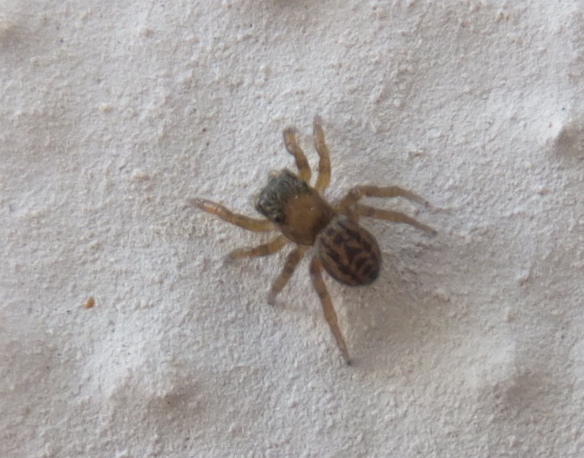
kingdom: Animalia
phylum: Arthropoda
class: Arachnida
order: Araneae
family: Salticidae
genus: Euophrys
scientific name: Euophrys frontalis
